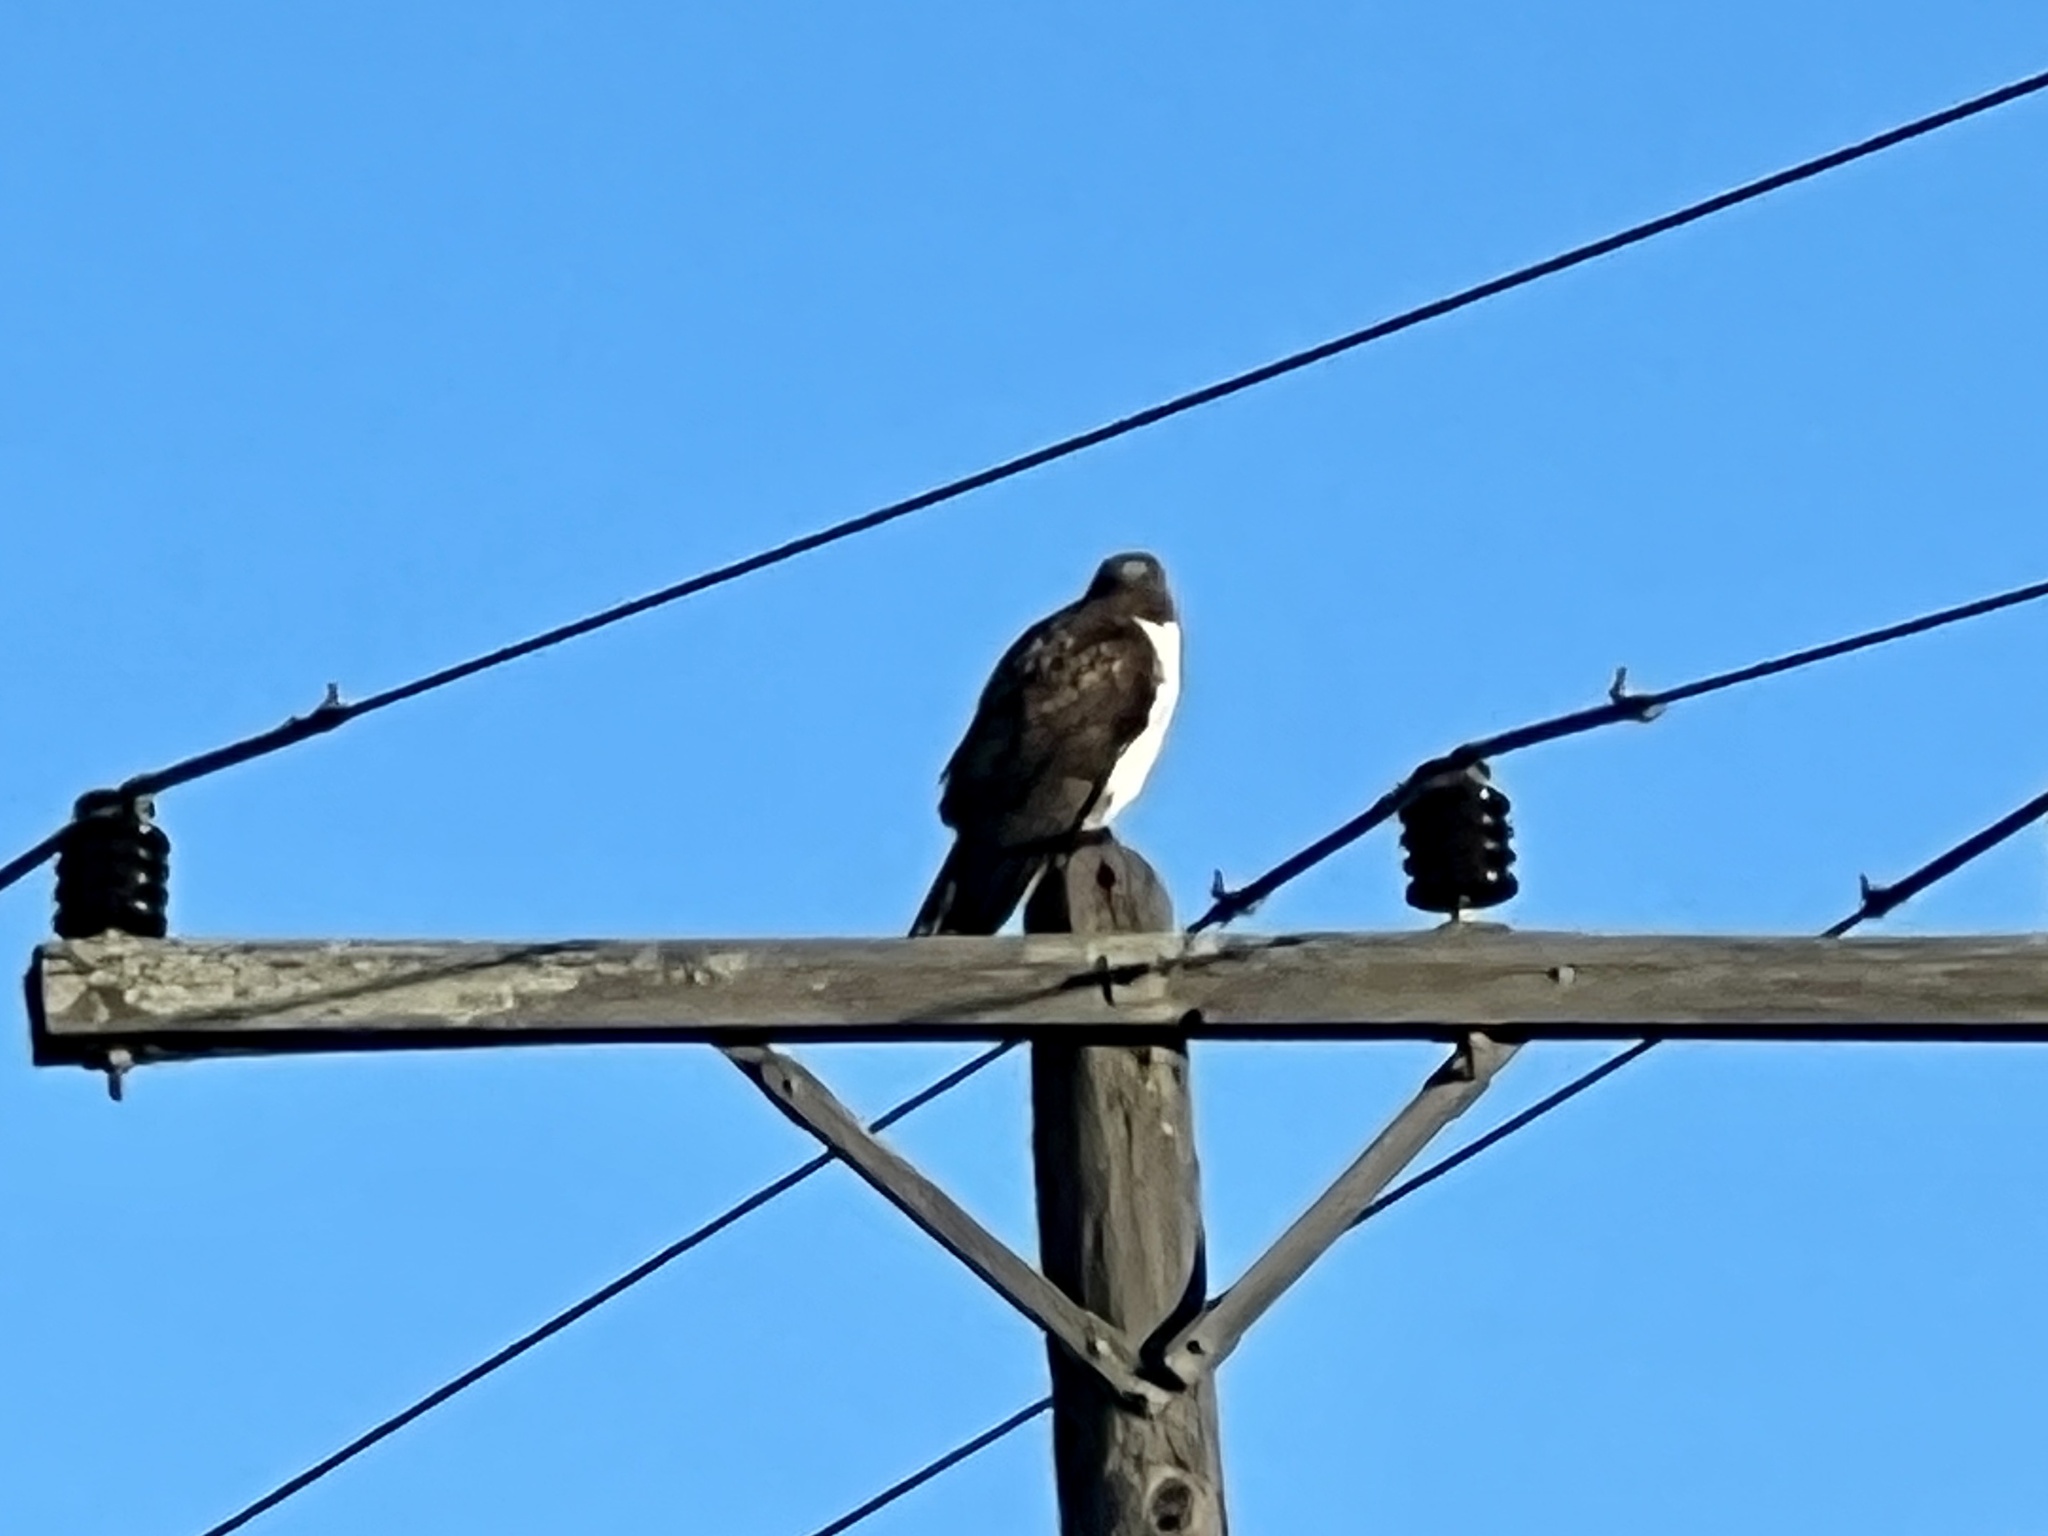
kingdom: Animalia
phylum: Chordata
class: Aves
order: Accipitriformes
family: Accipitridae
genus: Buteo
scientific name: Buteo jamaicensis
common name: Red-tailed hawk
